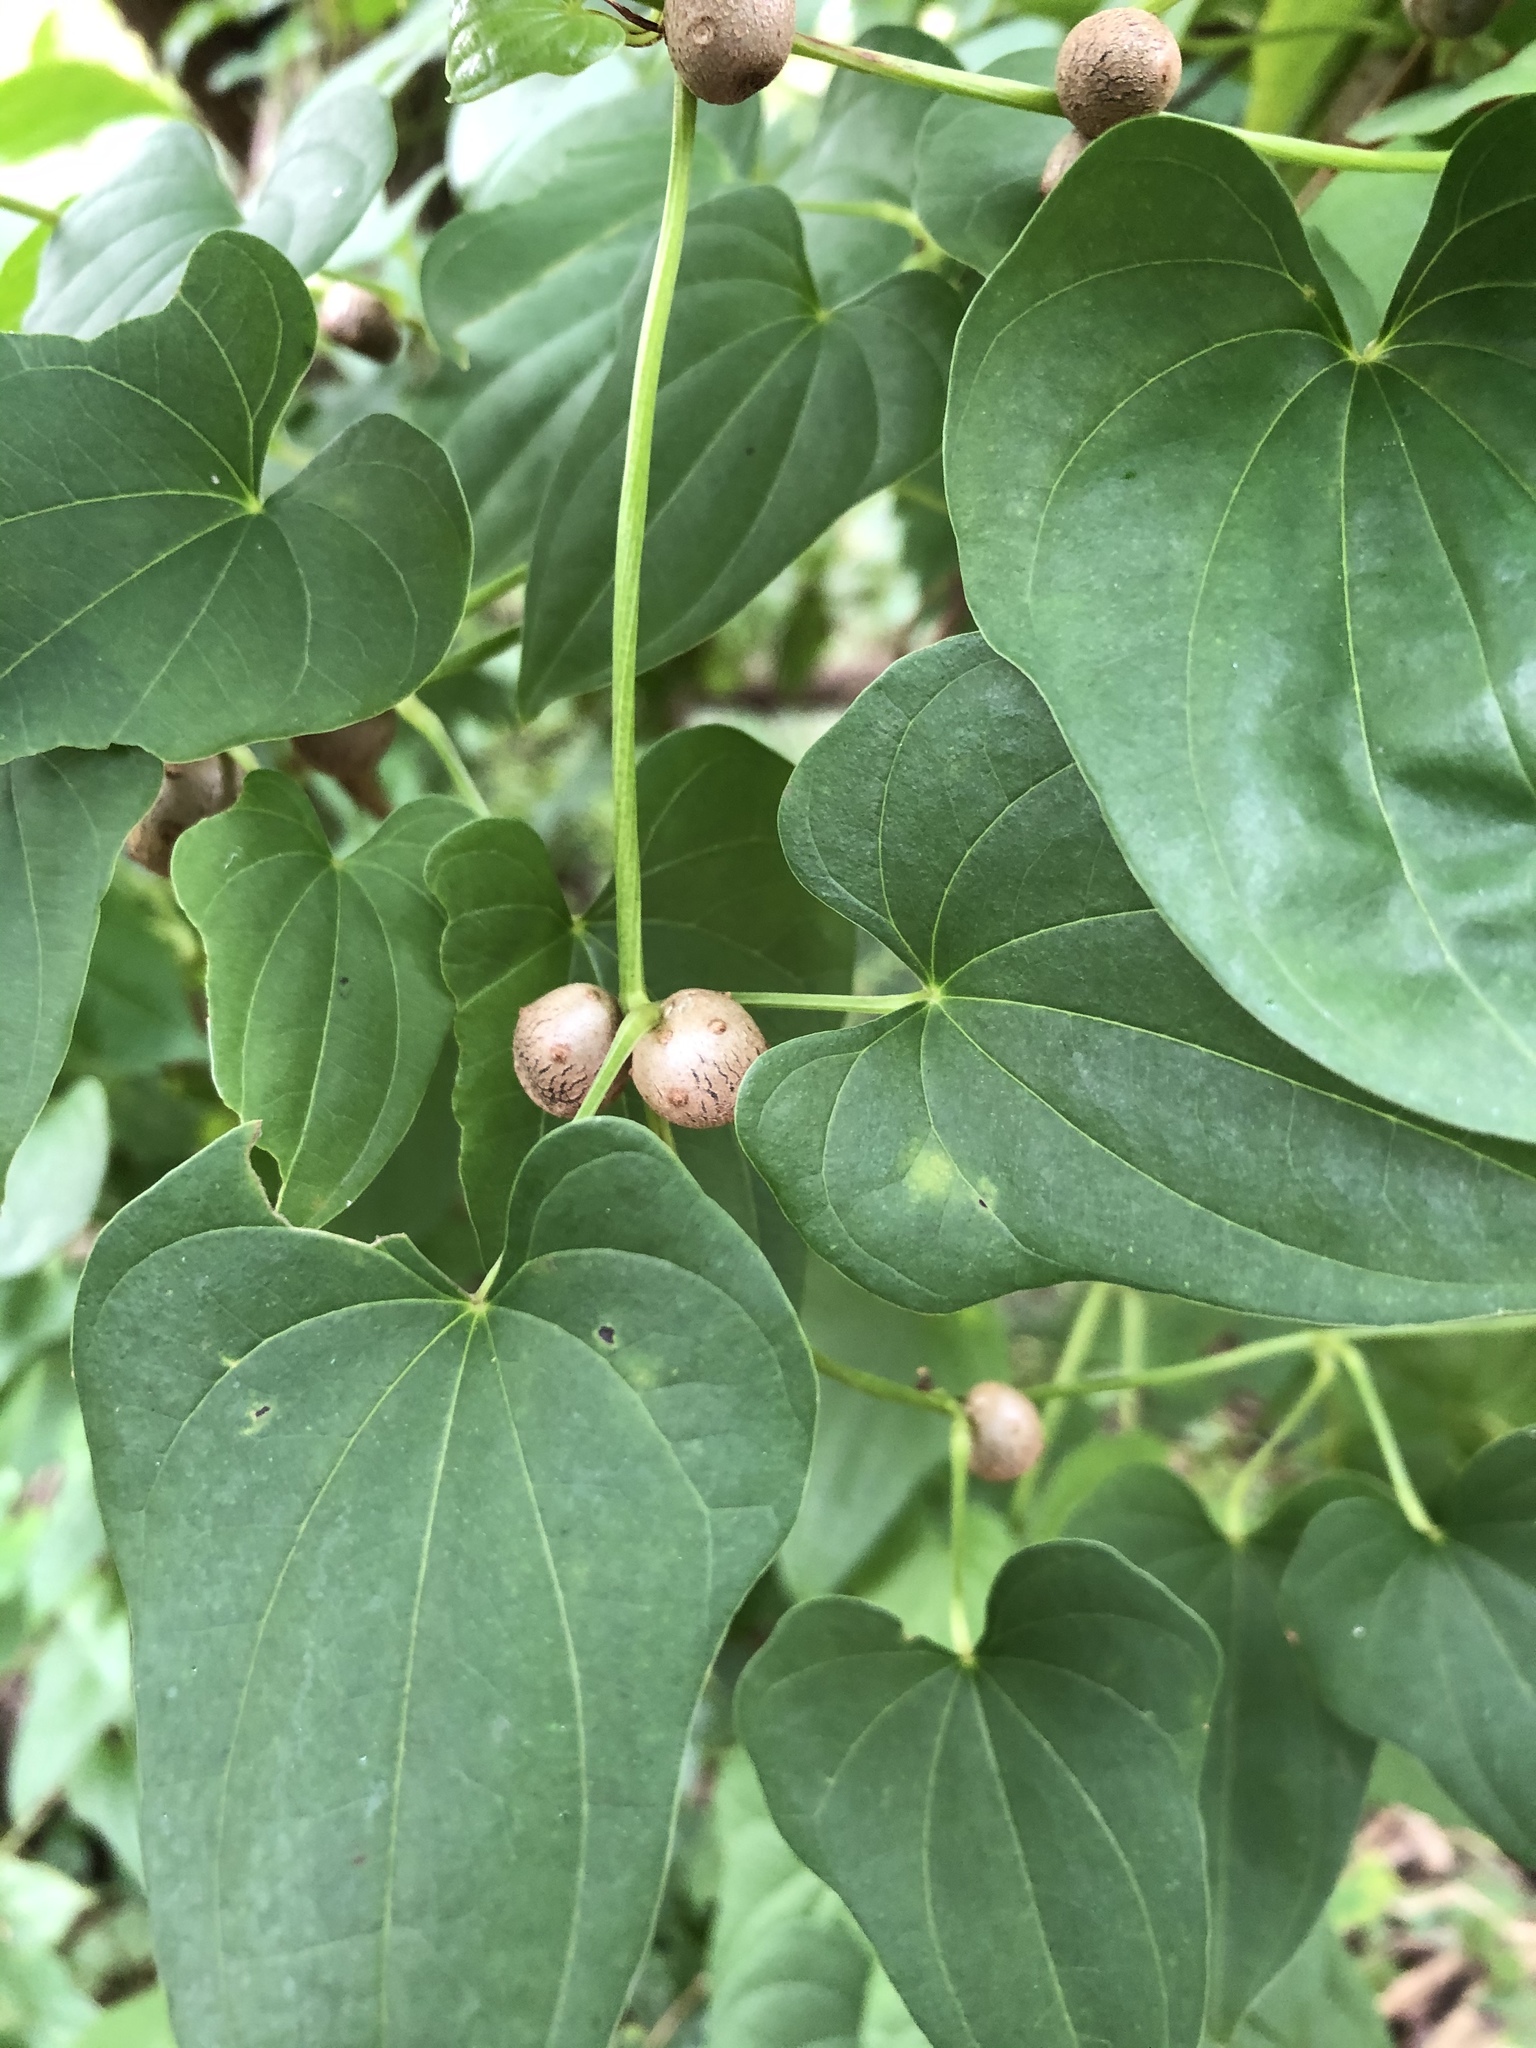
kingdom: Plantae
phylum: Tracheophyta
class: Liliopsida
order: Dioscoreales
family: Dioscoreaceae
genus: Dioscorea
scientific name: Dioscorea polystachya
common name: Chinese yam
